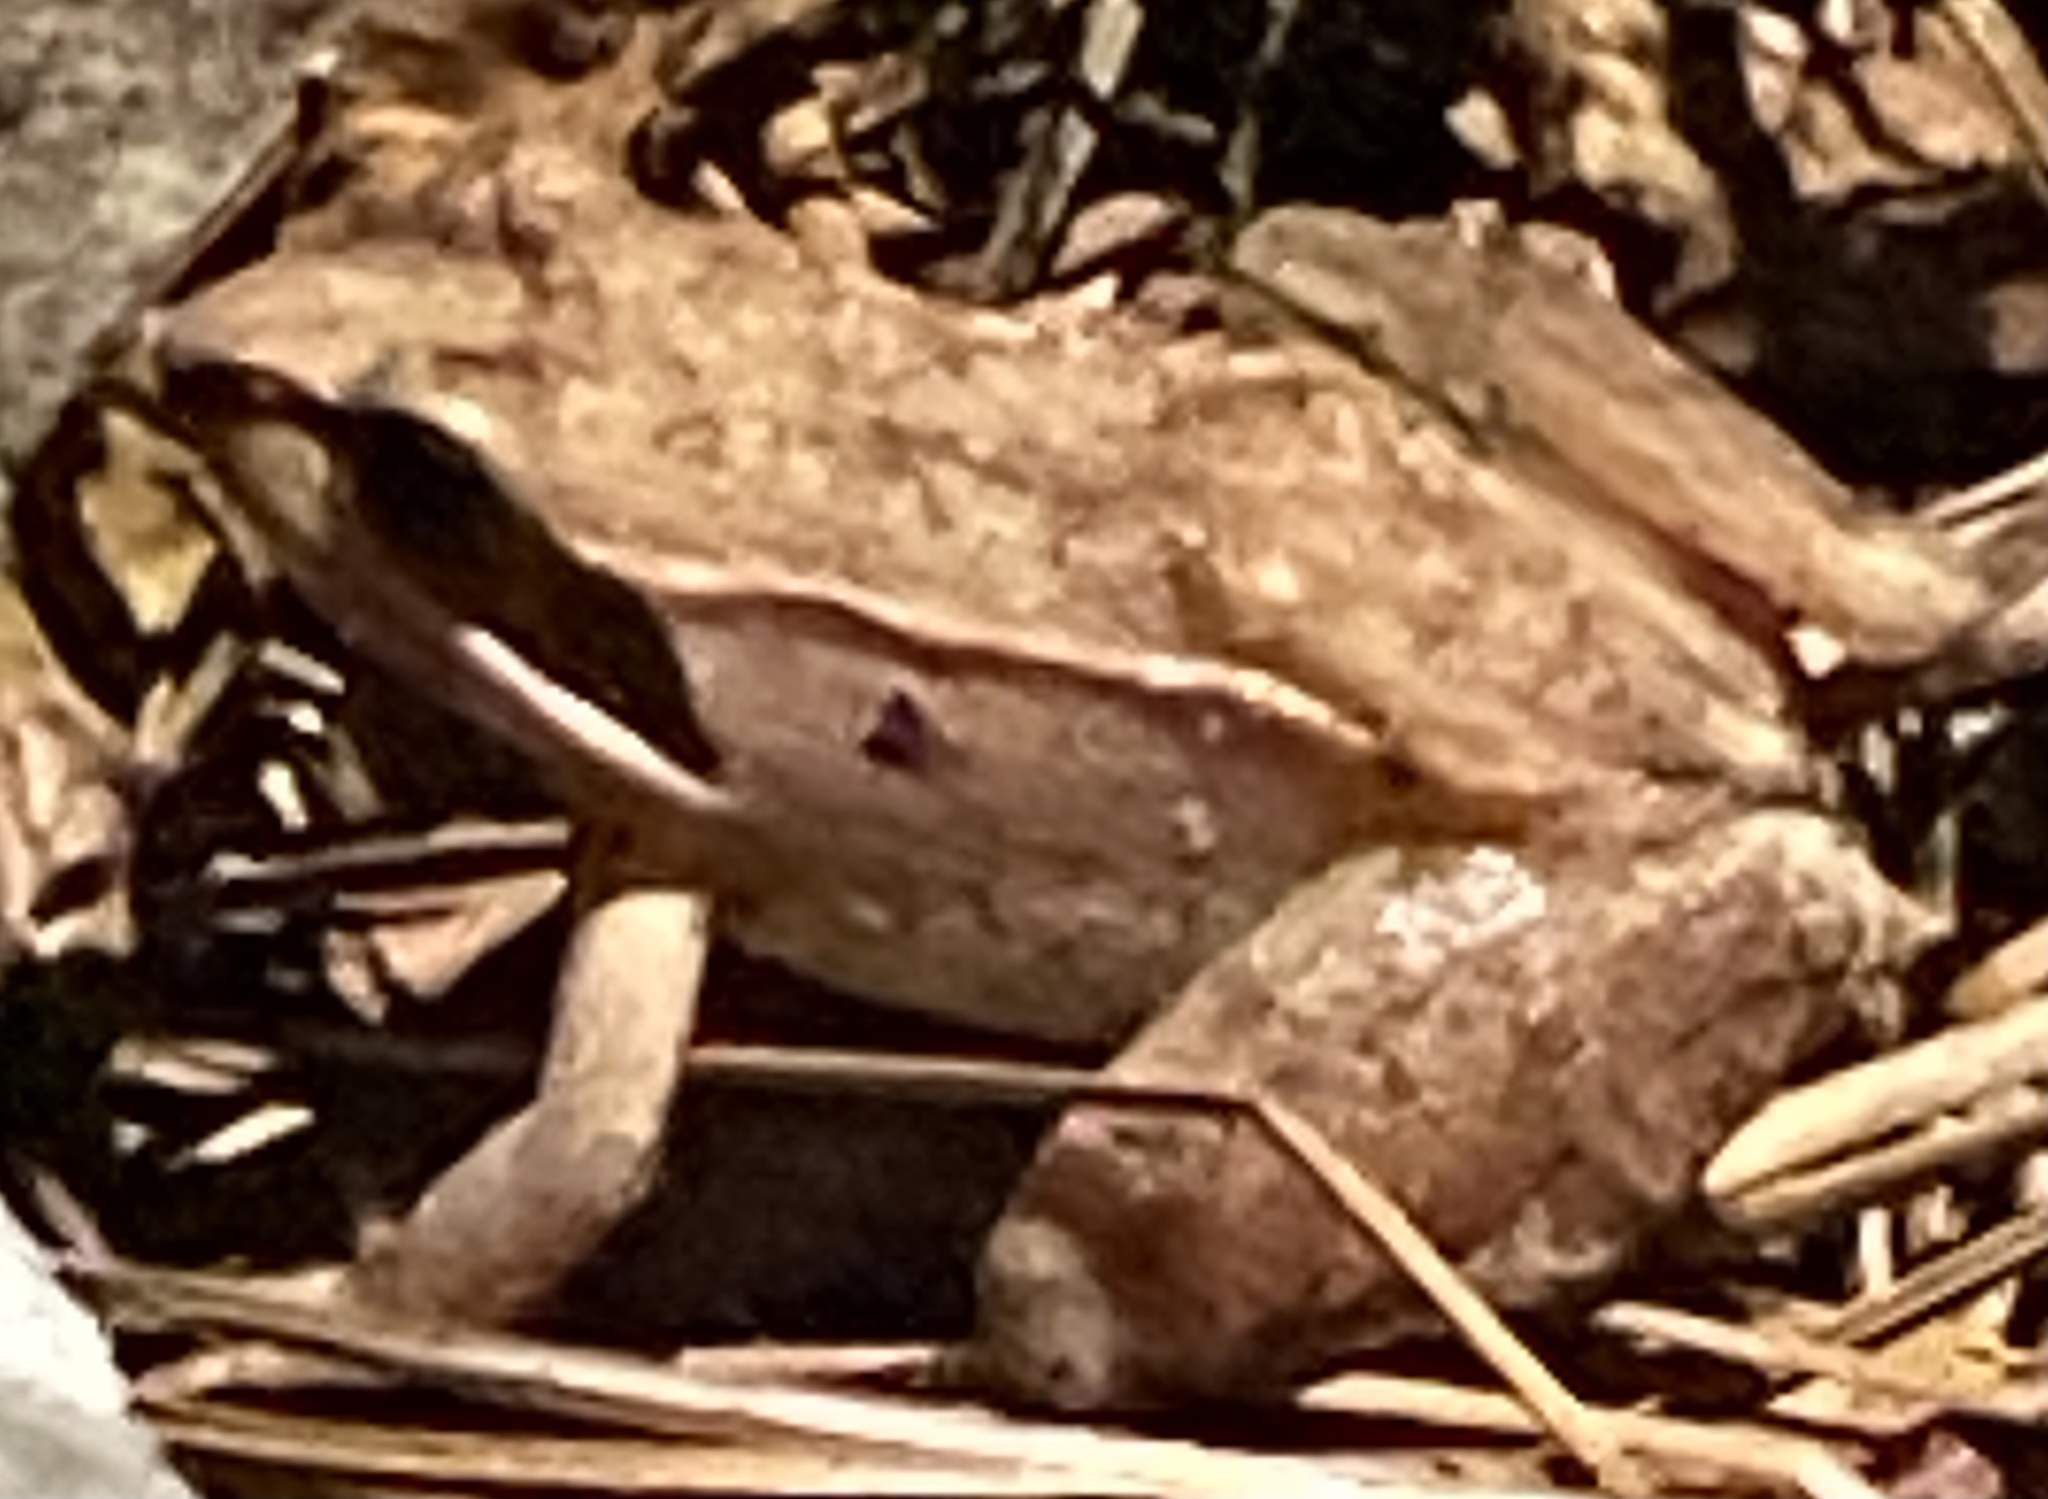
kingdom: Animalia
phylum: Chordata
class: Amphibia
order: Anura
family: Ranidae
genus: Lithobates
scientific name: Lithobates sylvaticus
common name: Wood frog
